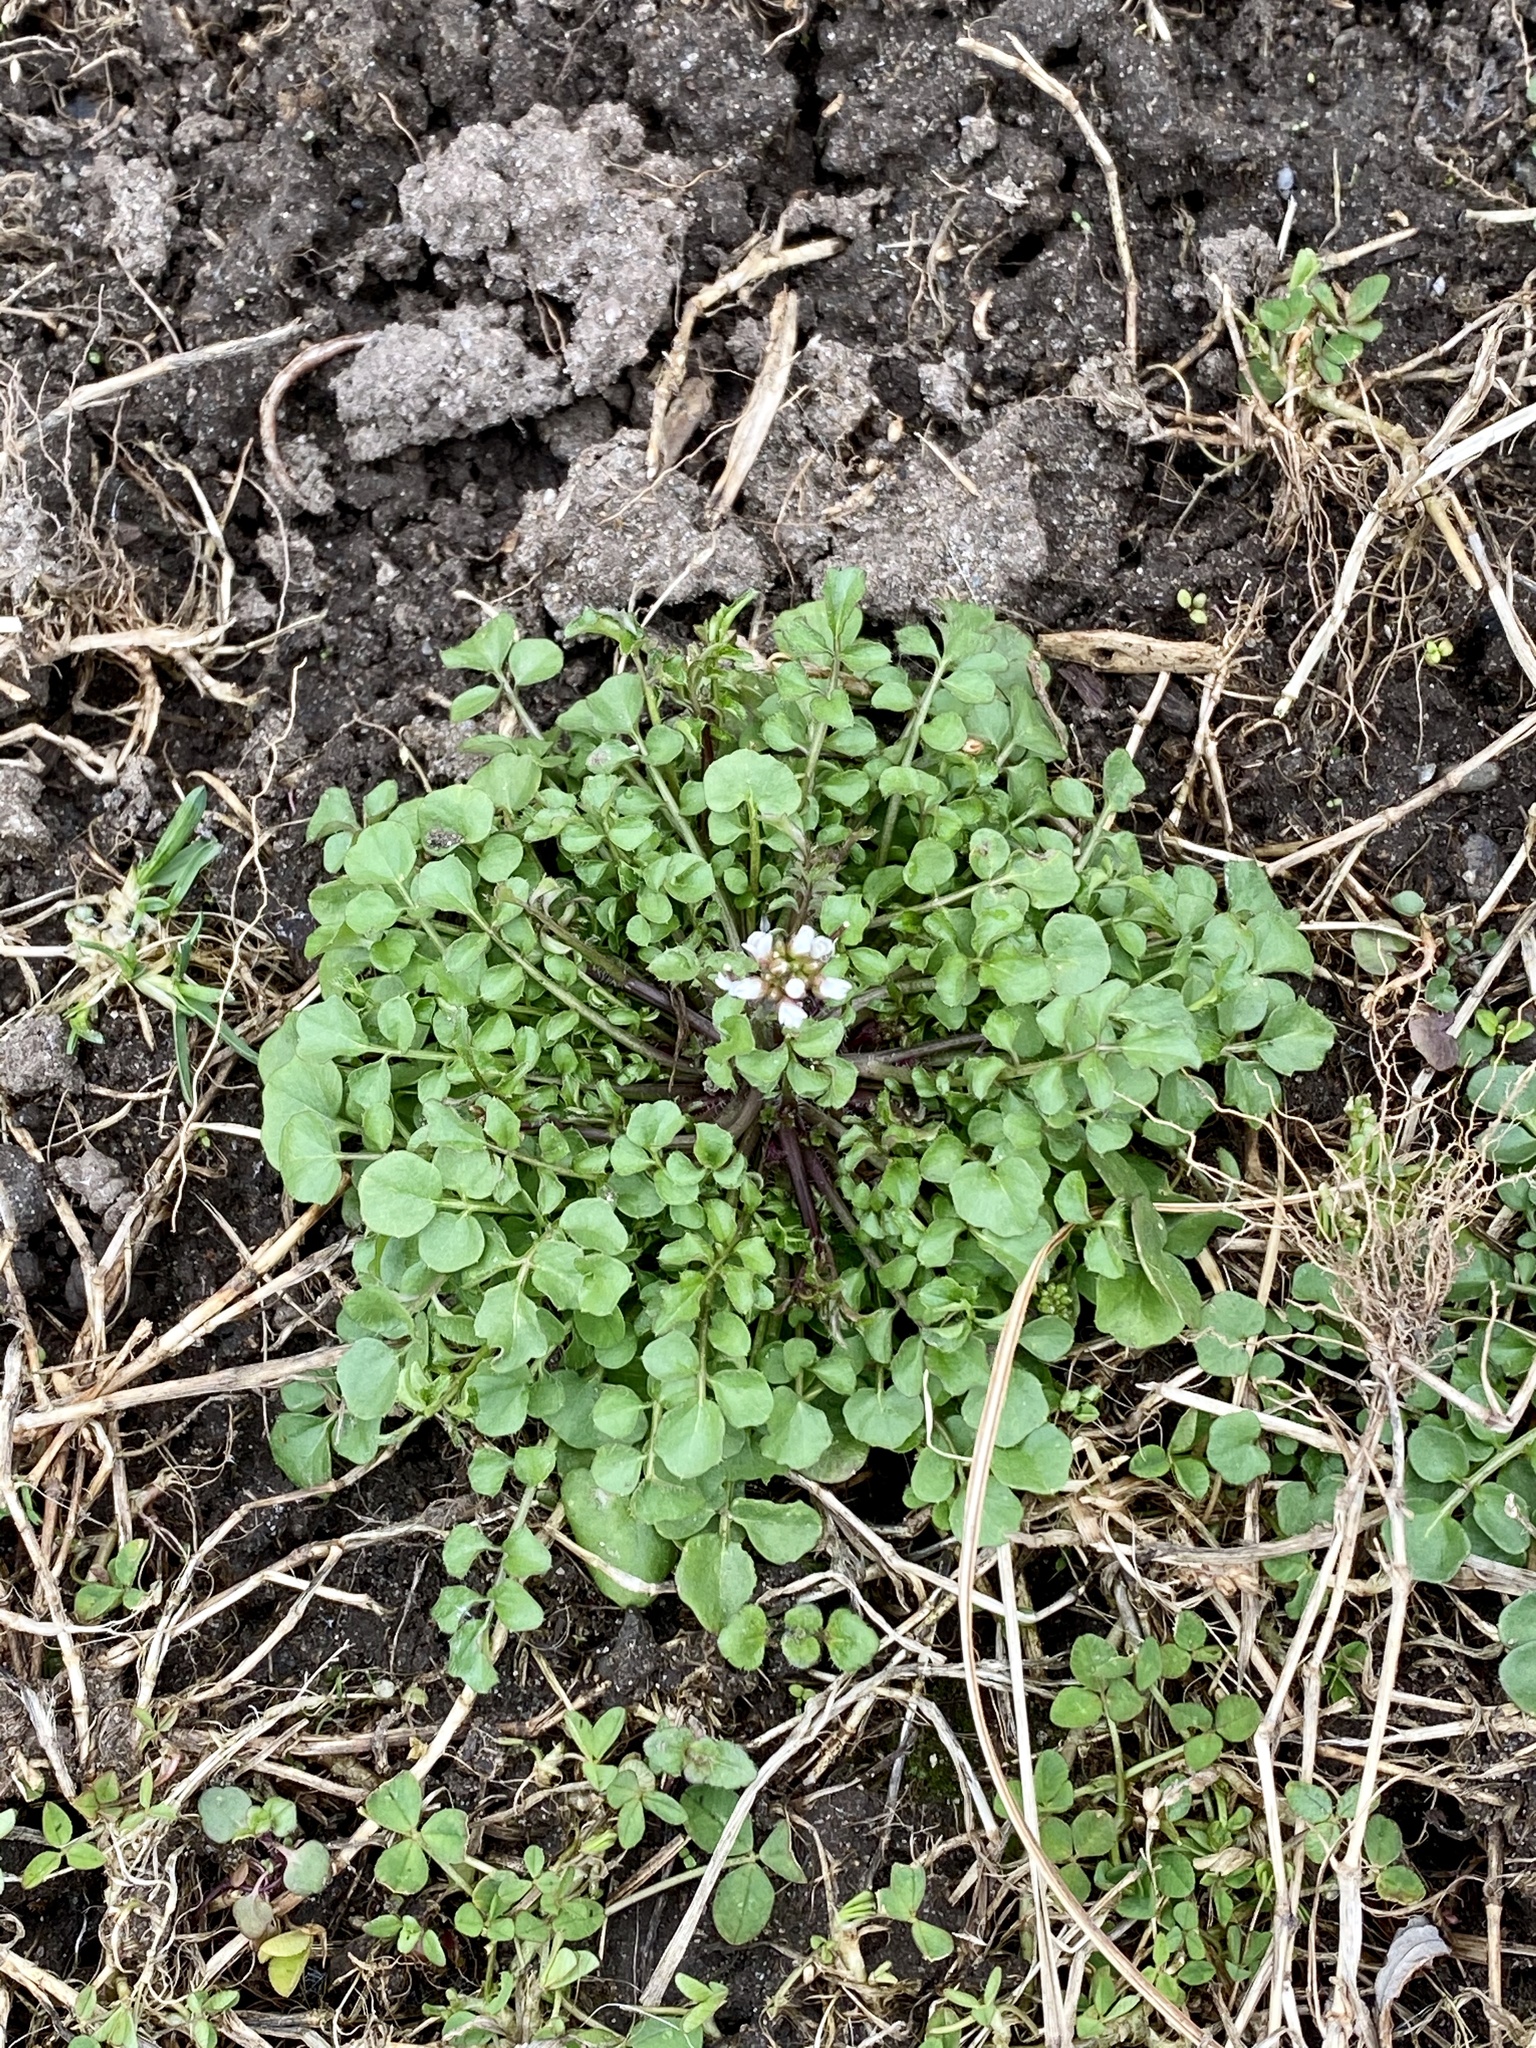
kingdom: Plantae
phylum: Tracheophyta
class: Magnoliopsida
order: Brassicales
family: Brassicaceae
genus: Cardamine
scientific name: Cardamine hirsuta
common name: Hairy bittercress
